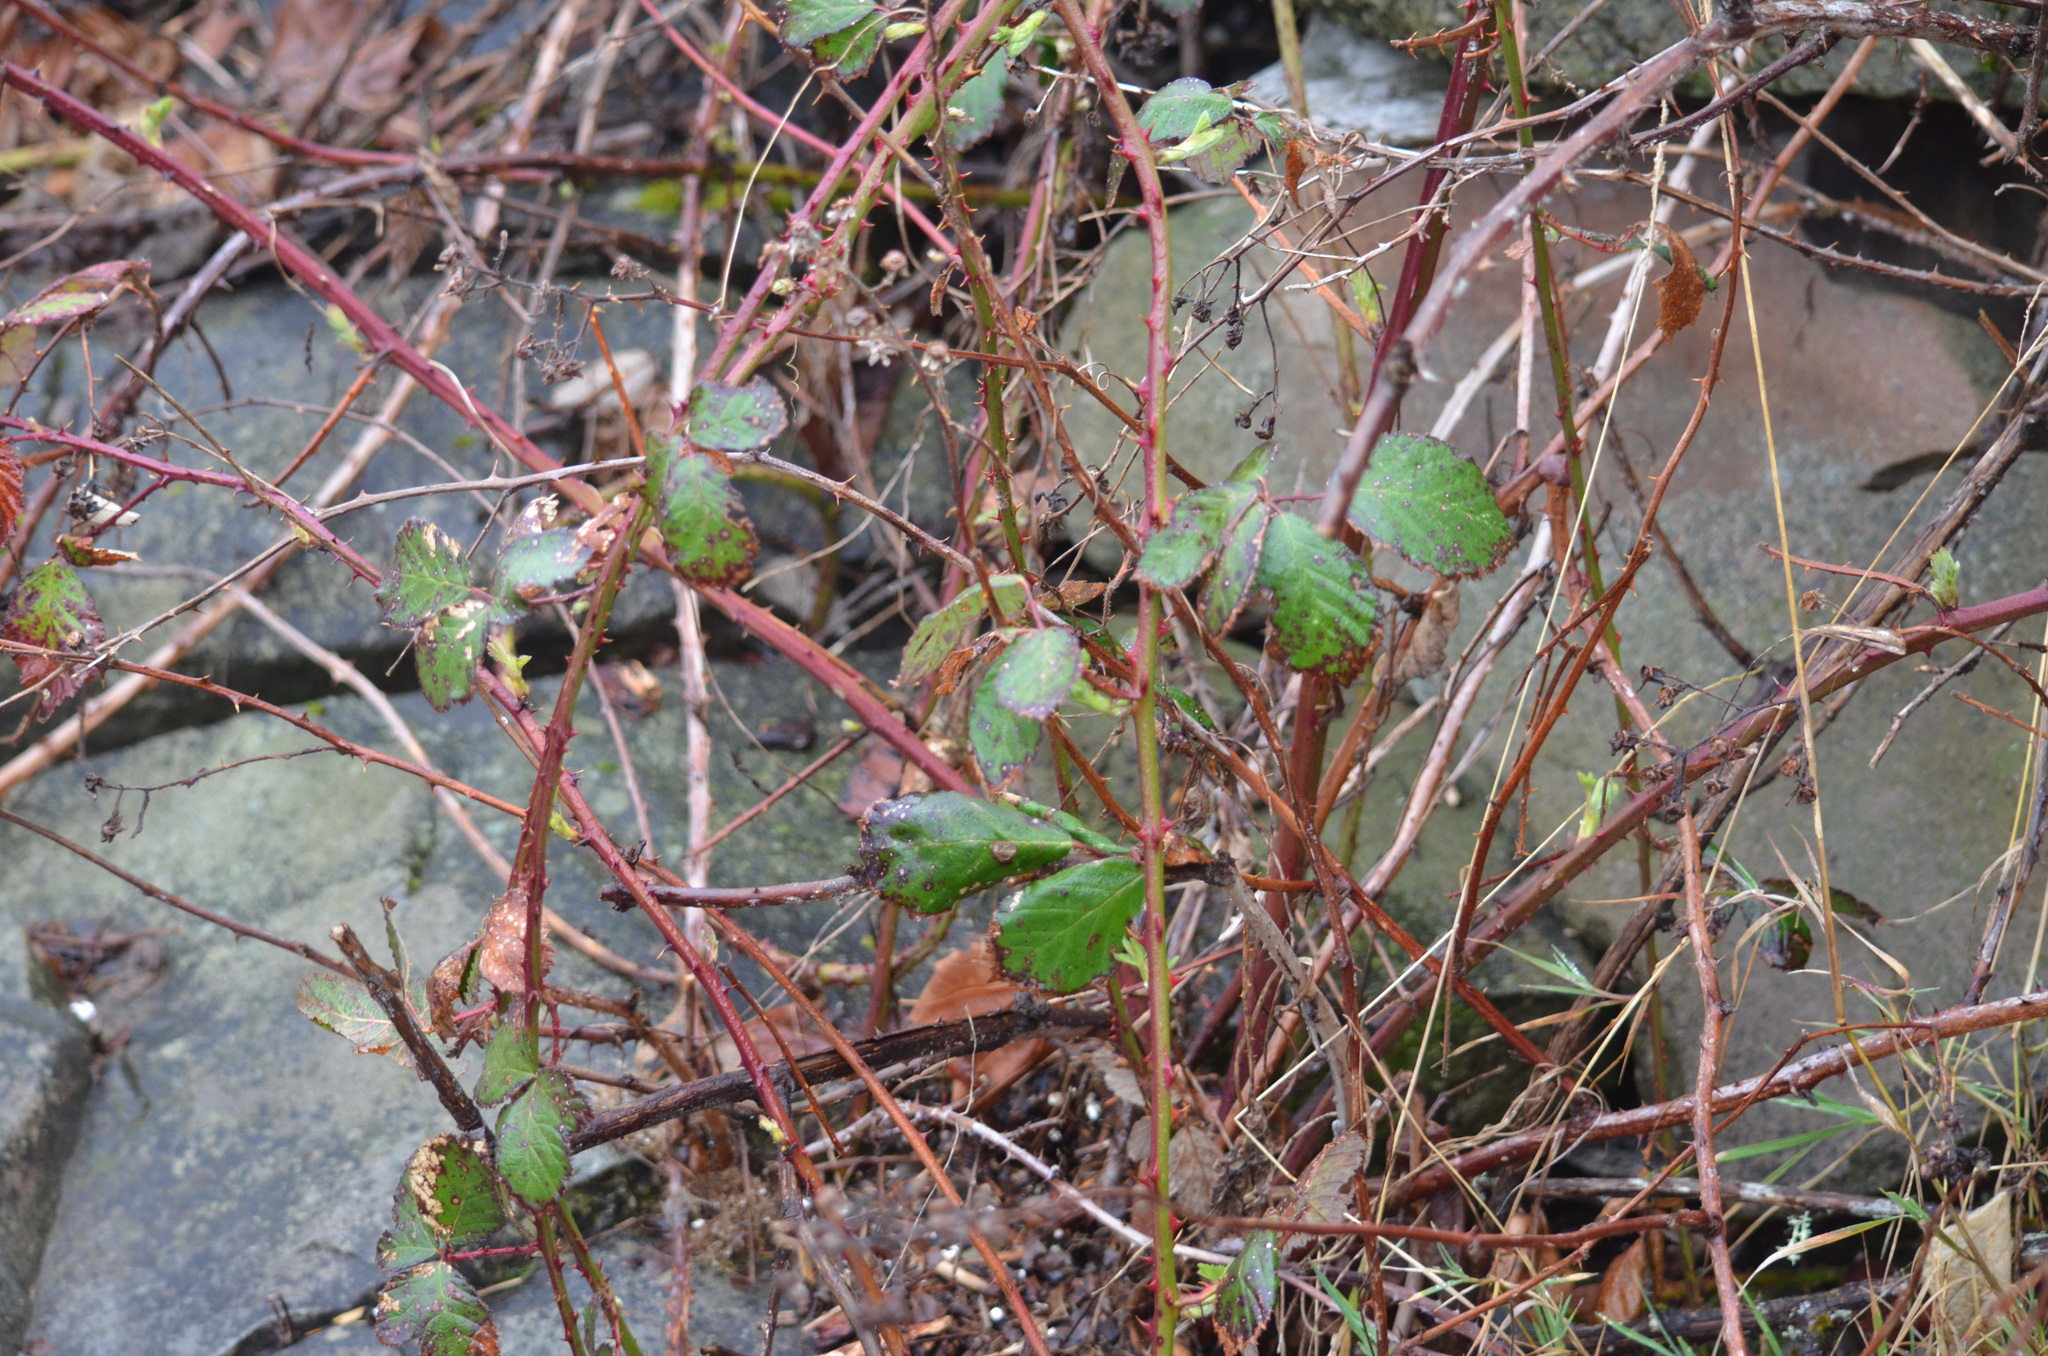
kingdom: Plantae
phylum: Tracheophyta
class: Magnoliopsida
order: Rosales
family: Rosaceae
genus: Rubus
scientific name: Rubus armeniacus
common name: Himalayan blackberry
